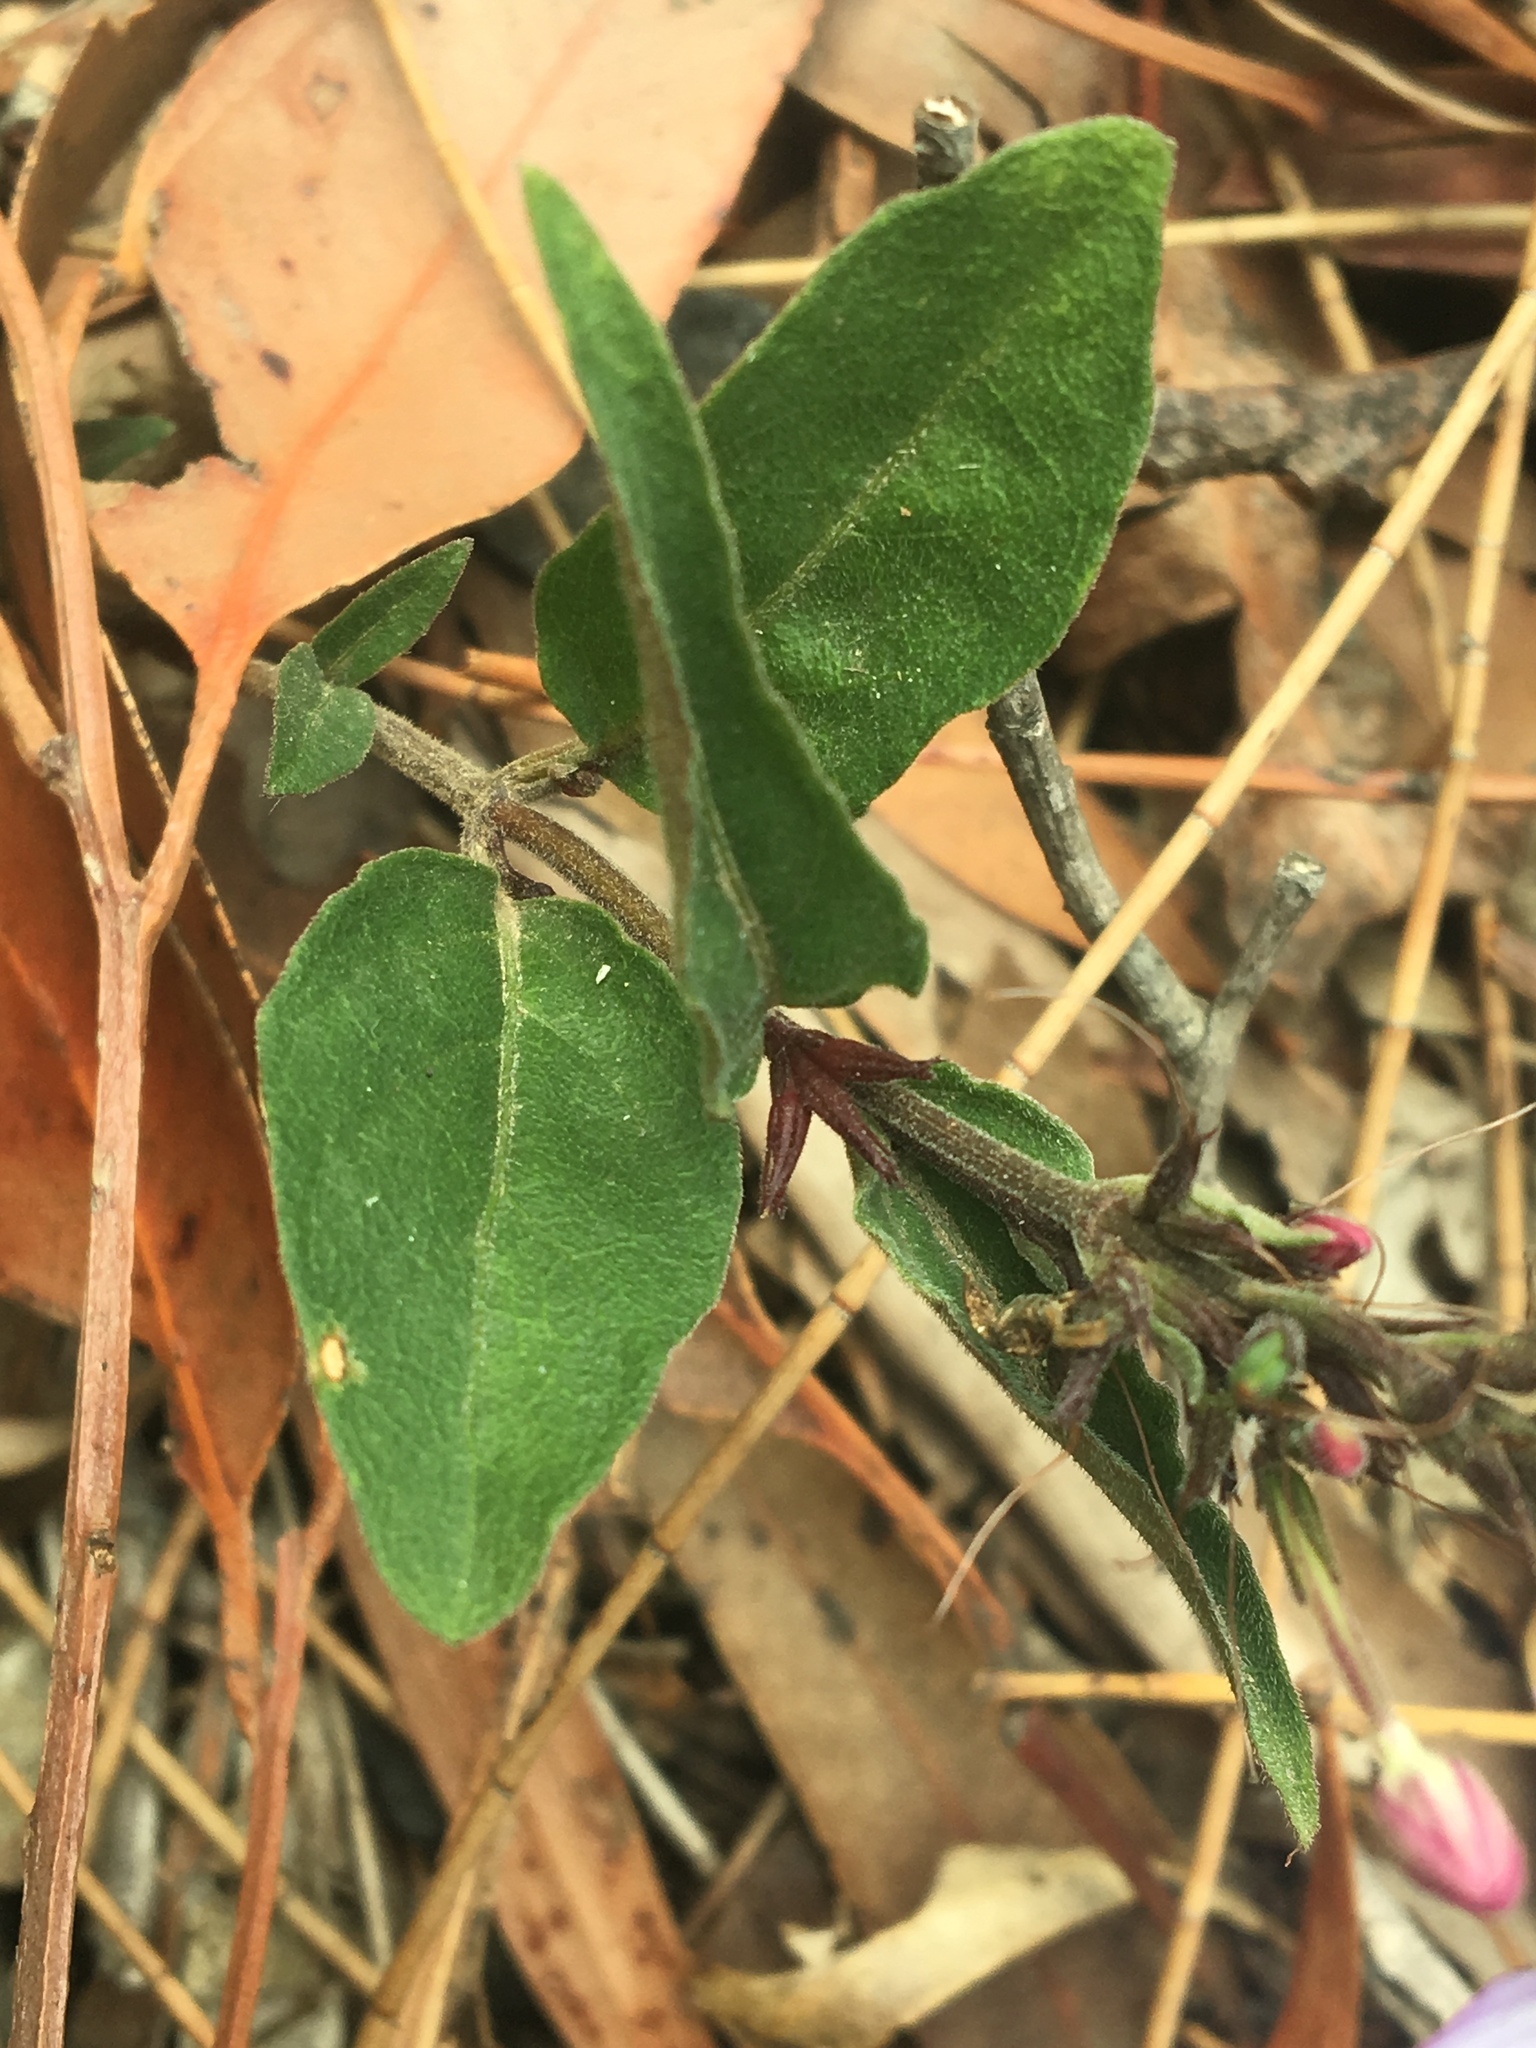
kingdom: Plantae
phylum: Tracheophyta
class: Magnoliopsida
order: Lamiales
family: Acanthaceae
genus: Pseuderanthemum
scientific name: Pseuderanthemum variabile
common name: Night and afternoon
